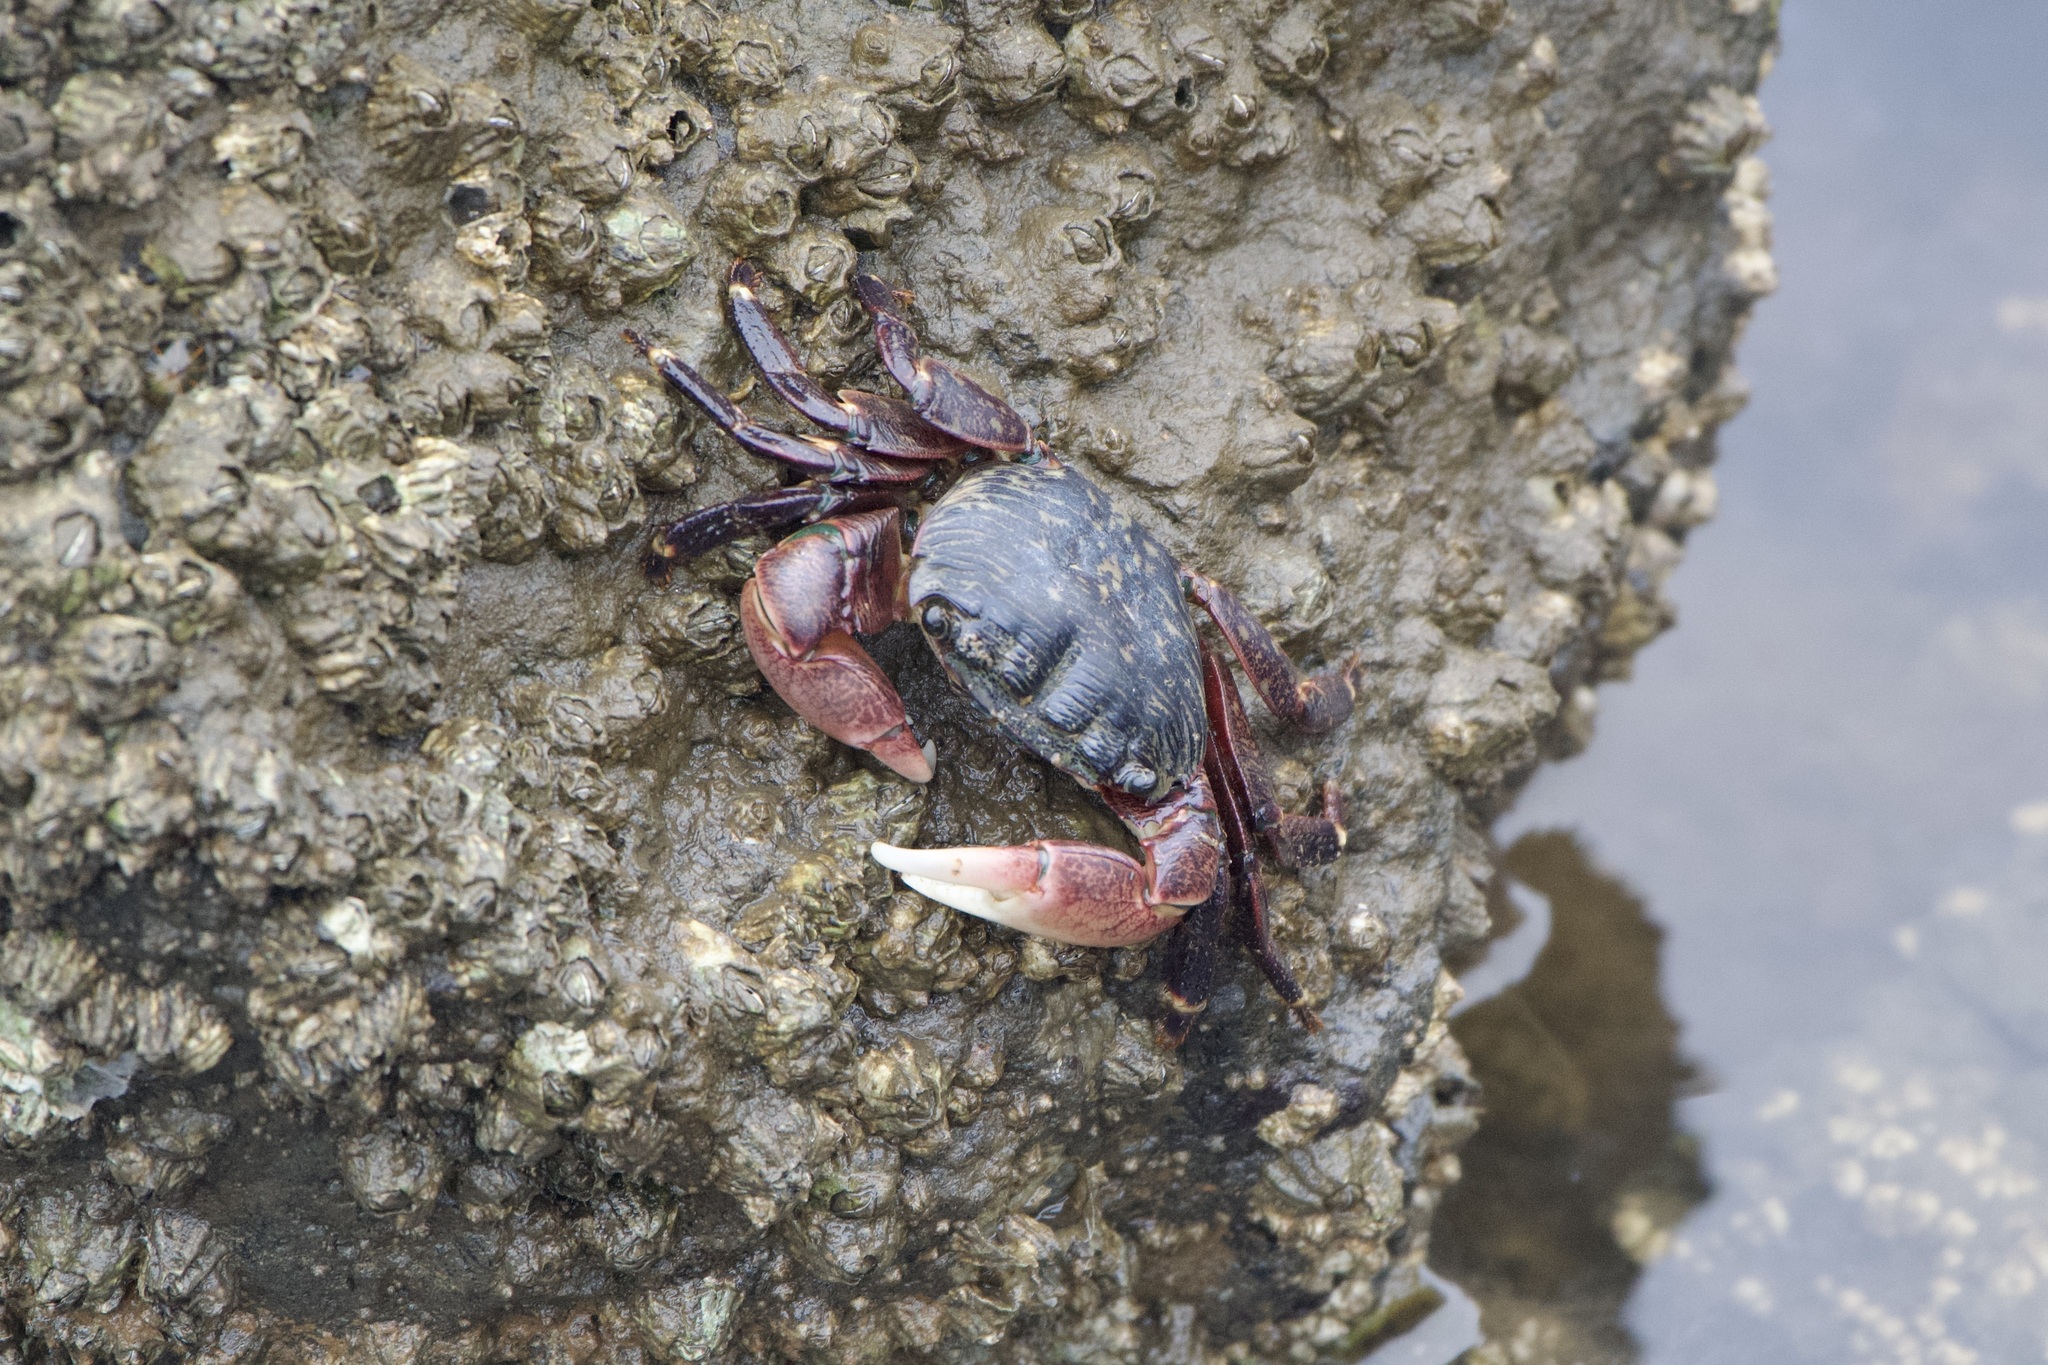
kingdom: Animalia
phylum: Arthropoda
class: Malacostraca
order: Decapoda
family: Grapsidae
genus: Pachygrapsus
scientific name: Pachygrapsus crassipes
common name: Striped shore crab
